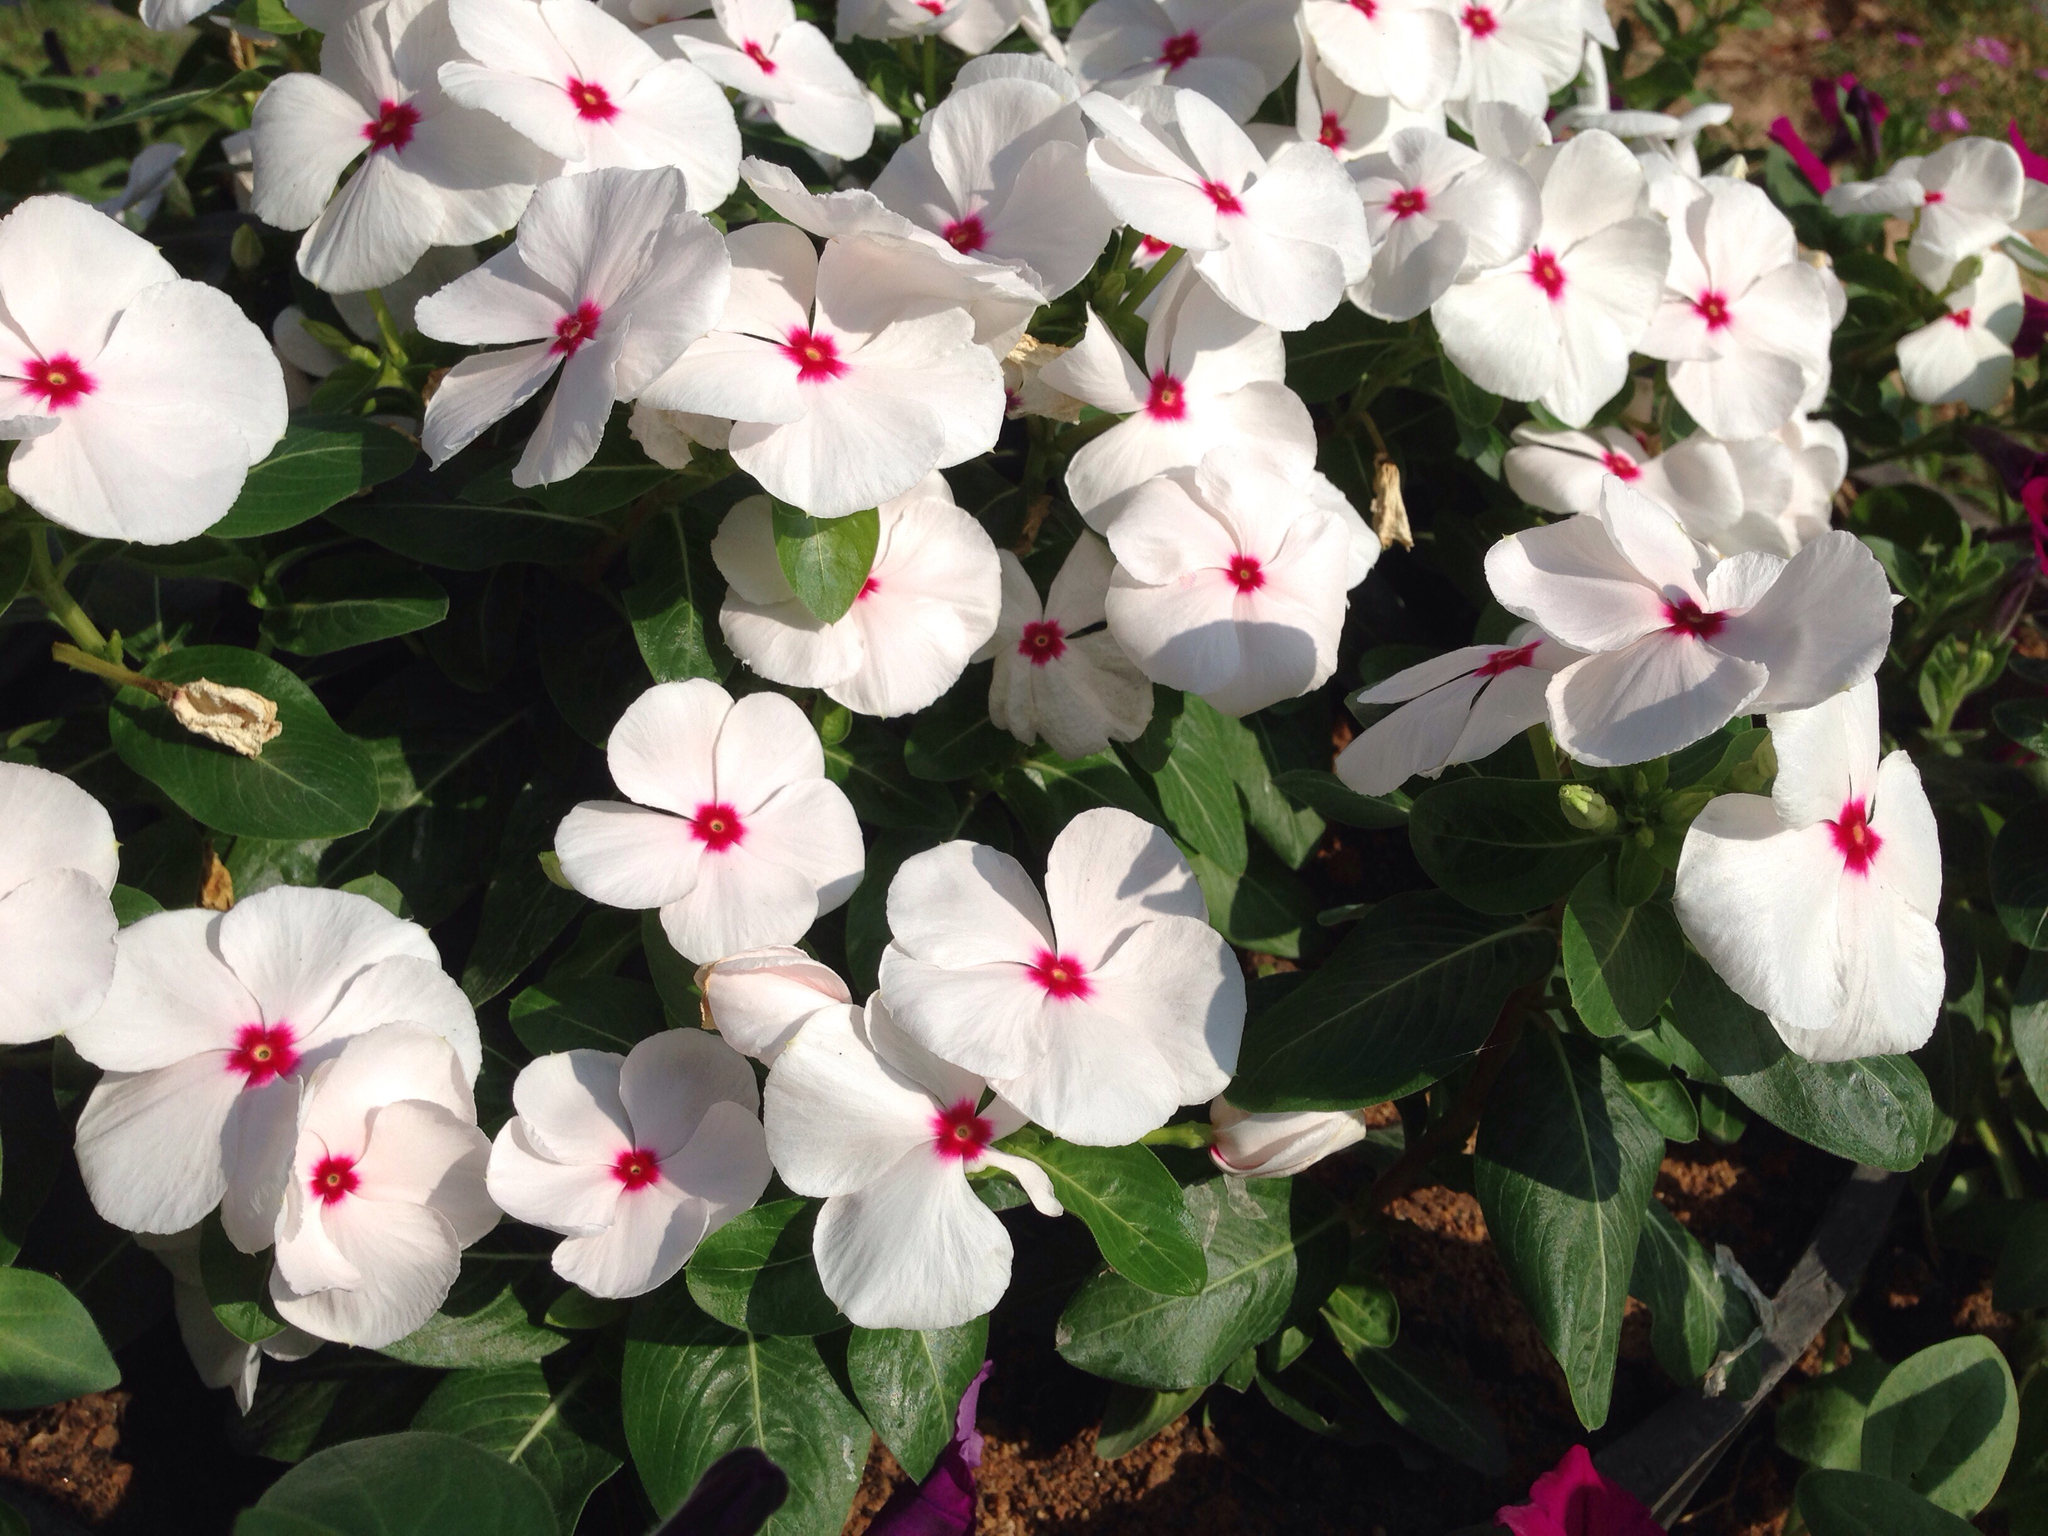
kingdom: Plantae
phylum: Tracheophyta
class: Magnoliopsida
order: Gentianales
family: Apocynaceae
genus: Catharanthus
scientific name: Catharanthus roseus
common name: Madagascar periwinkle
